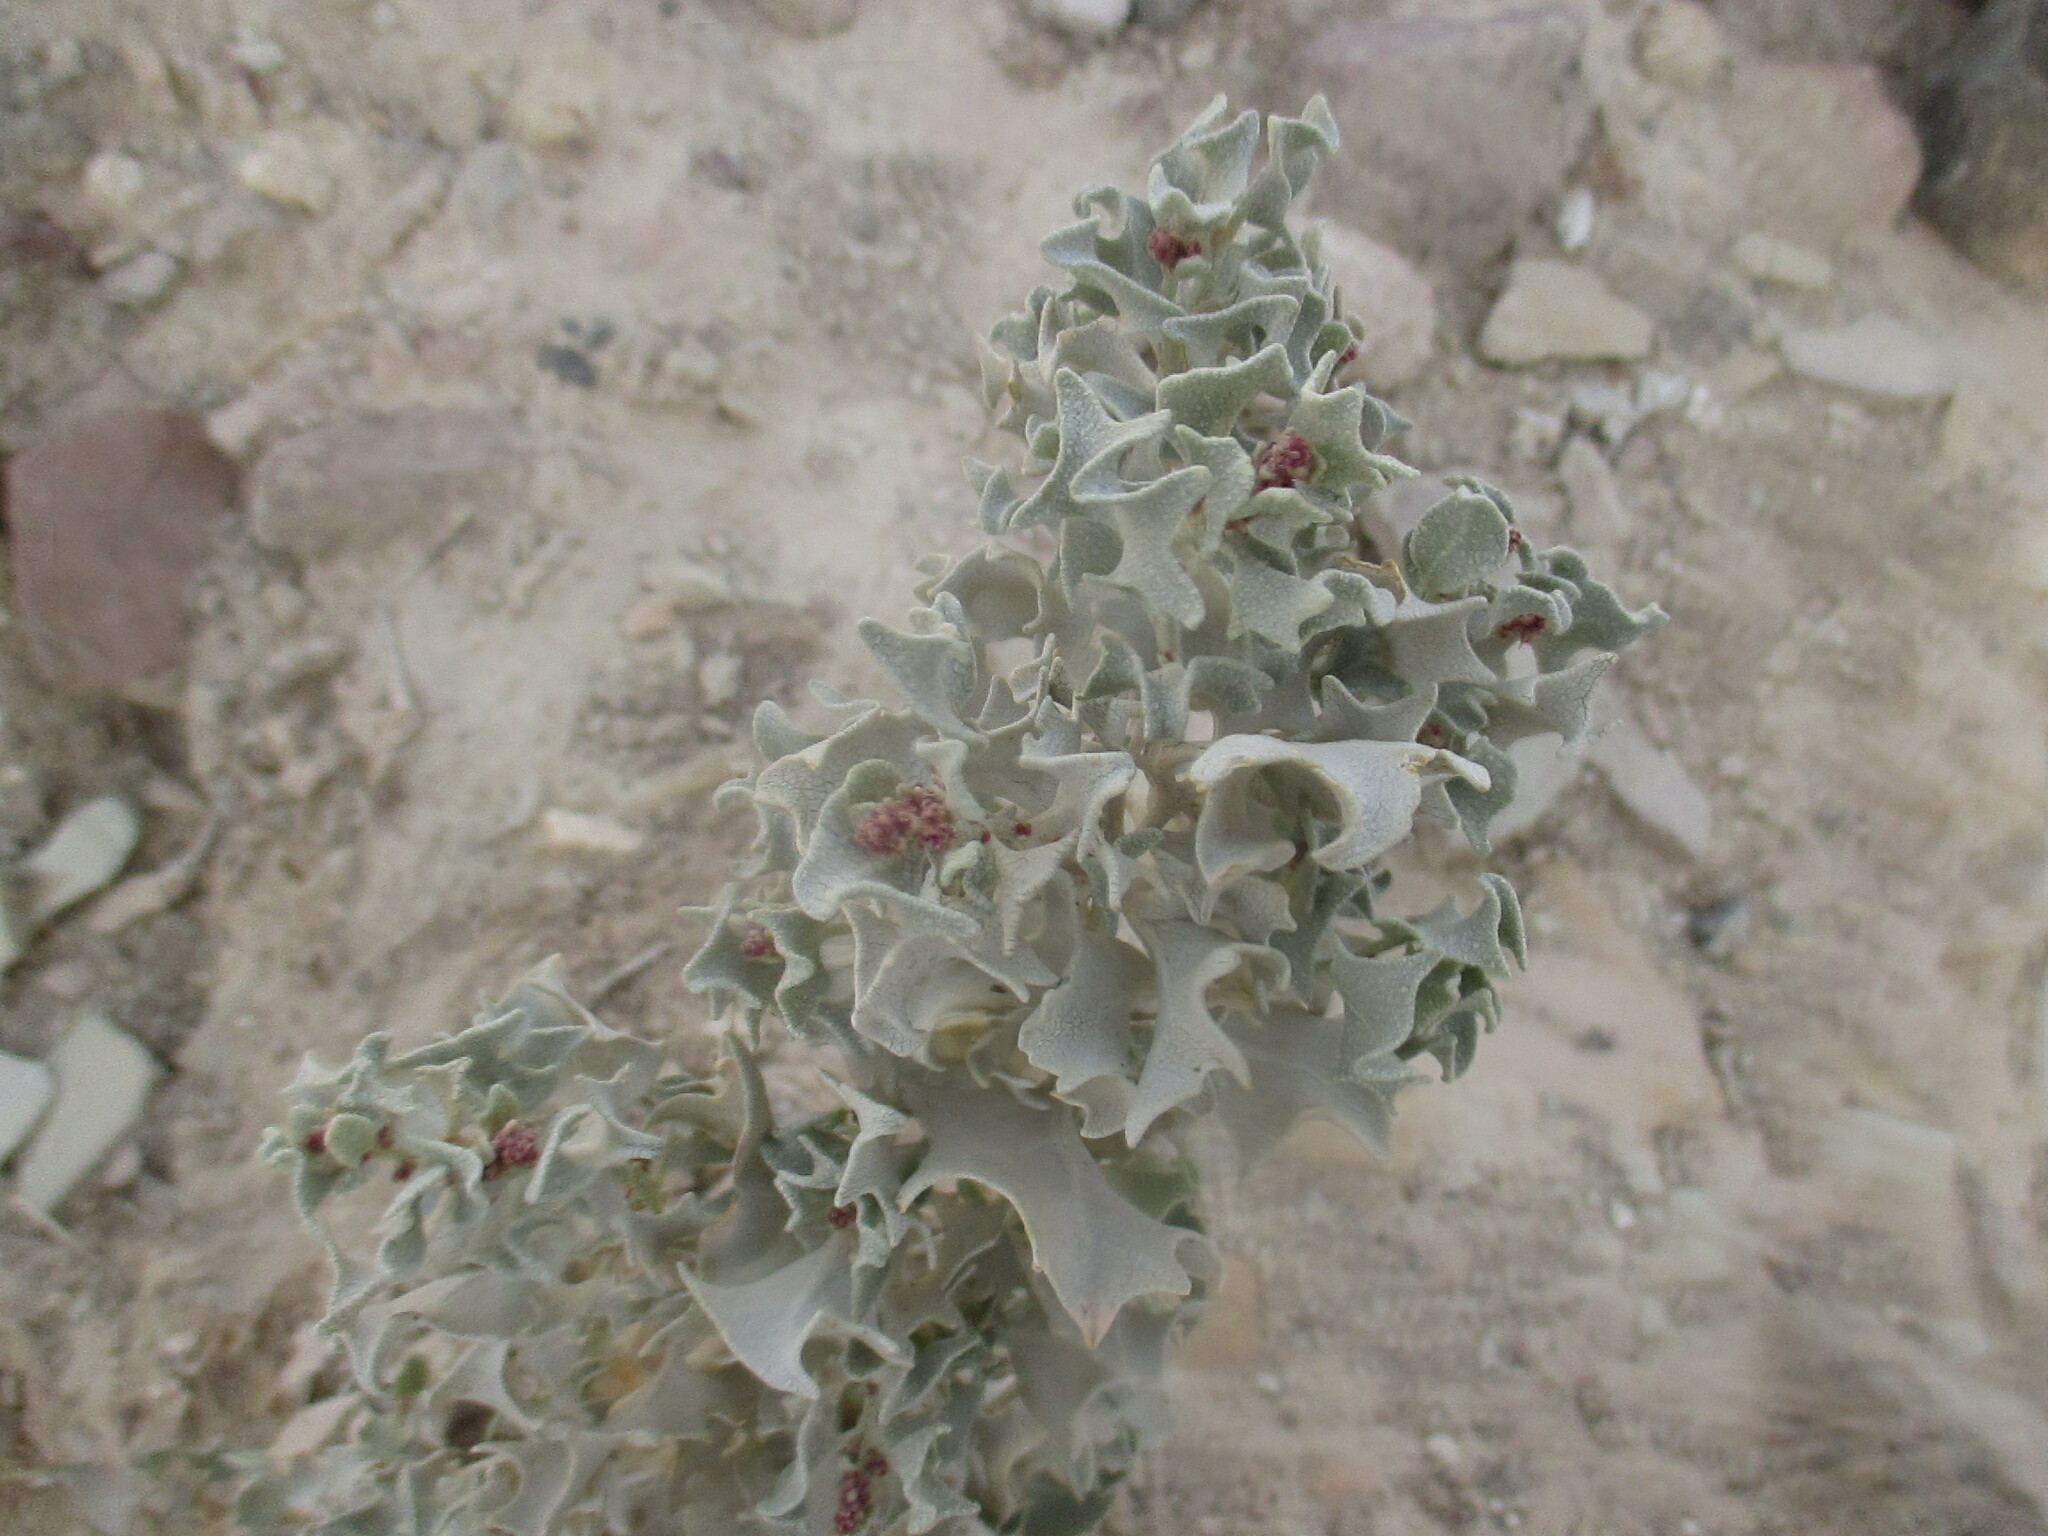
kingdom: Plantae
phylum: Tracheophyta
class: Magnoliopsida
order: Caryophyllales
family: Amaranthaceae
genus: Atriplex
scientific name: Atriplex hymenelytra
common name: Desert-holly
